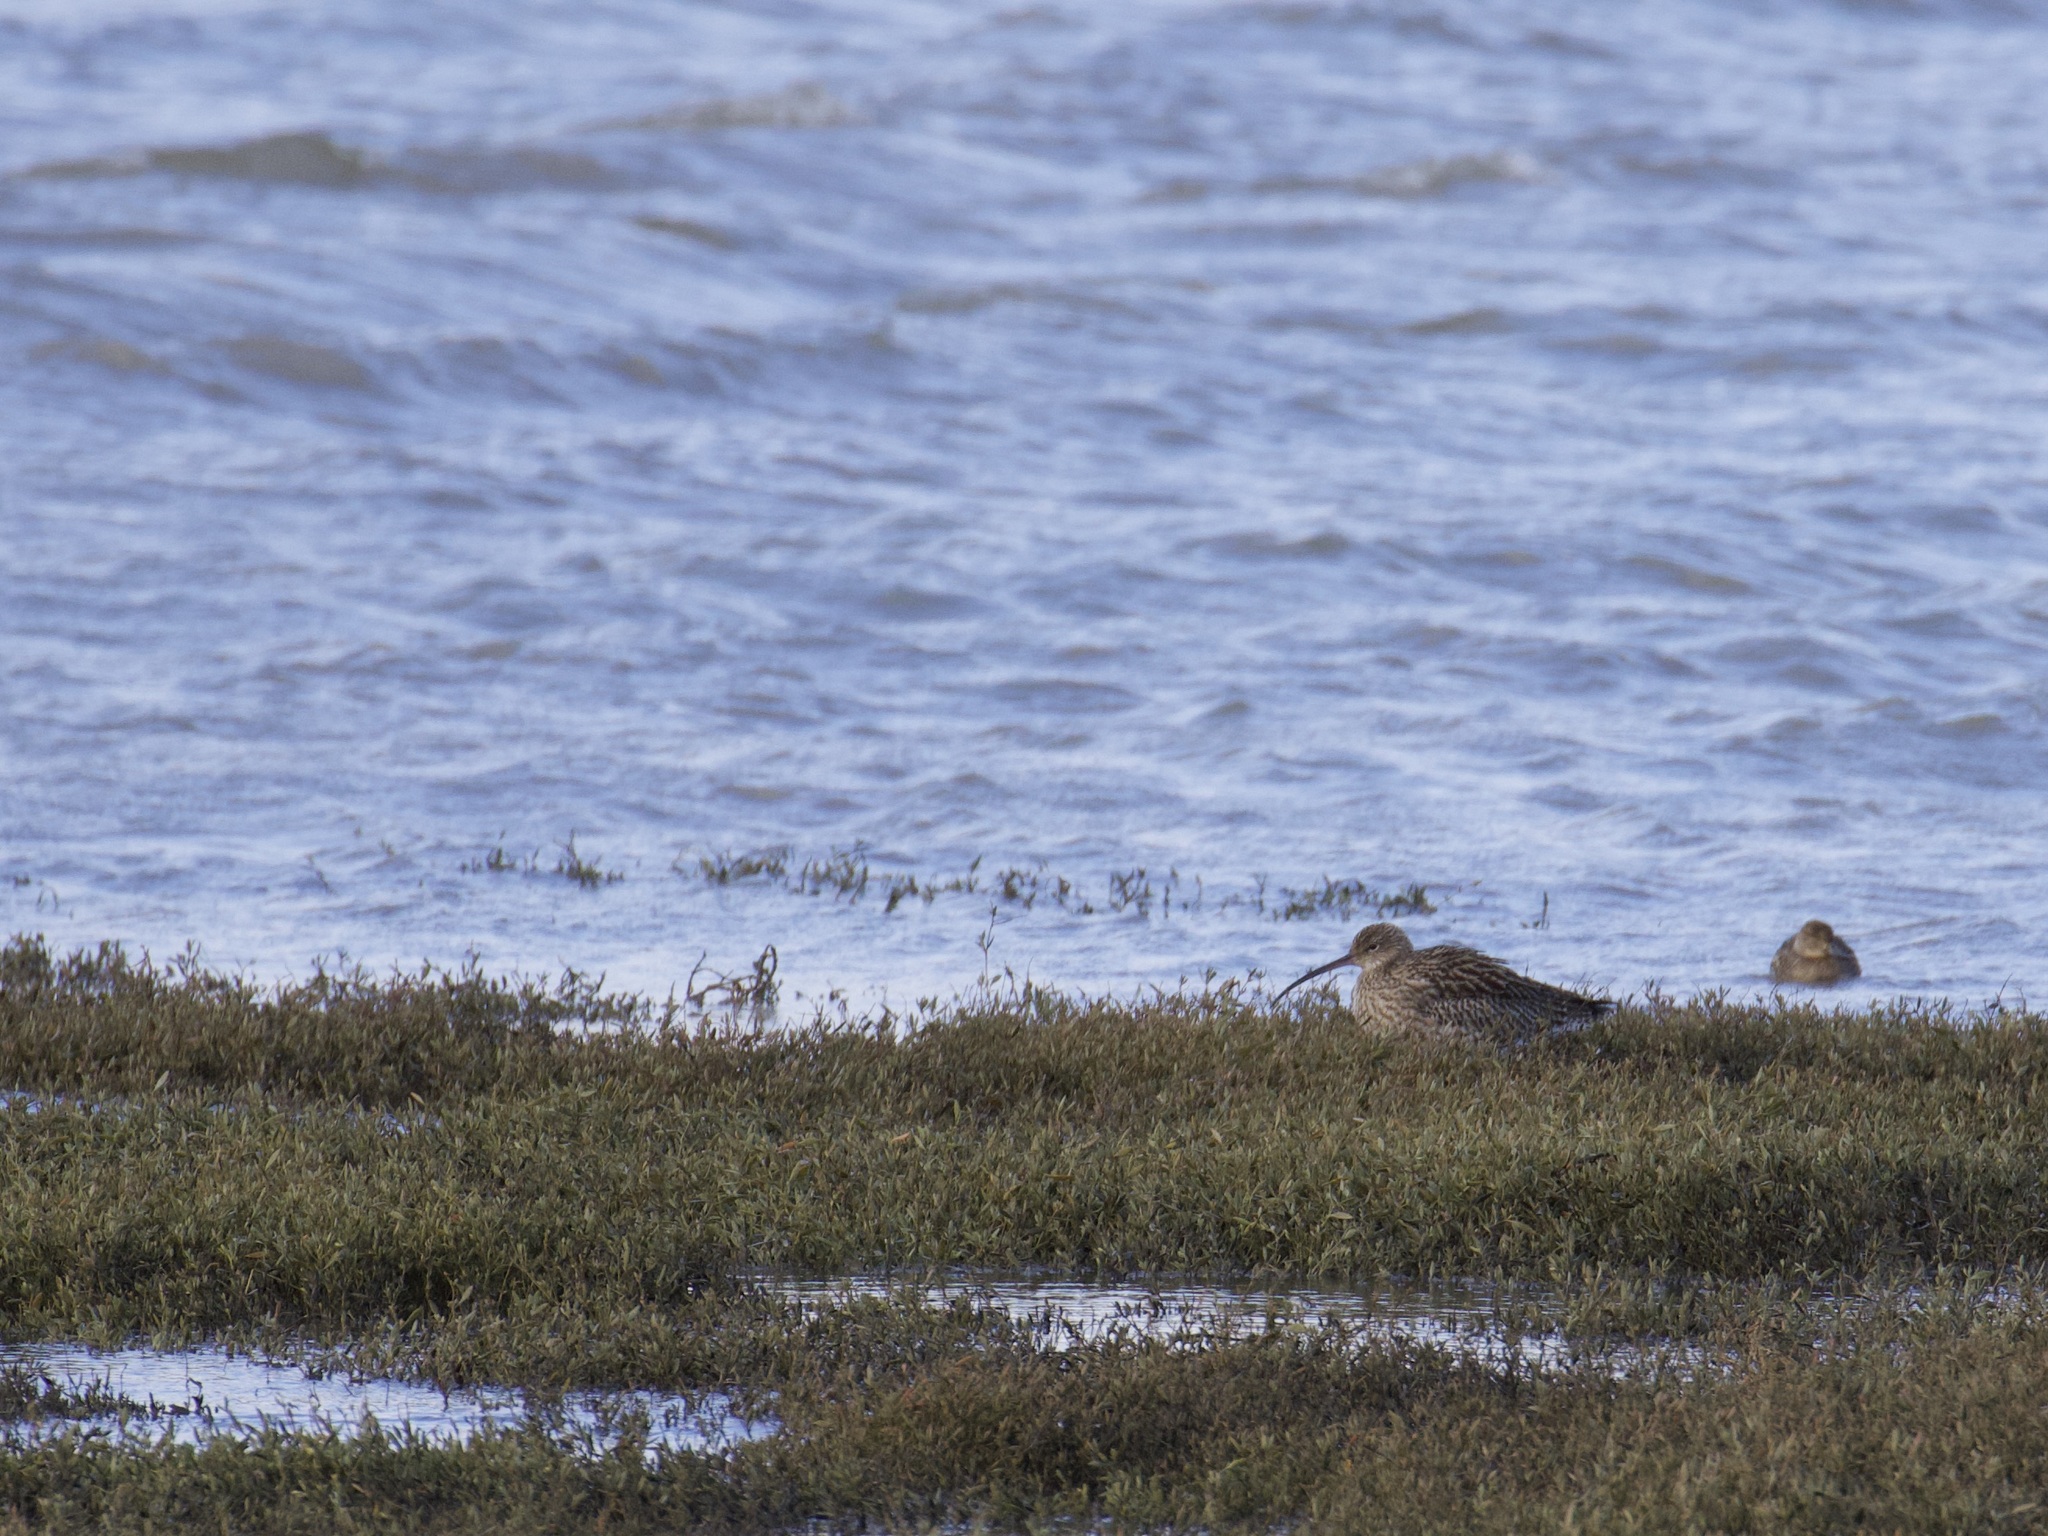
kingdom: Animalia
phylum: Chordata
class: Aves
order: Charadriiformes
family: Scolopacidae
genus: Numenius
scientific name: Numenius arquata
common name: Eurasian curlew
